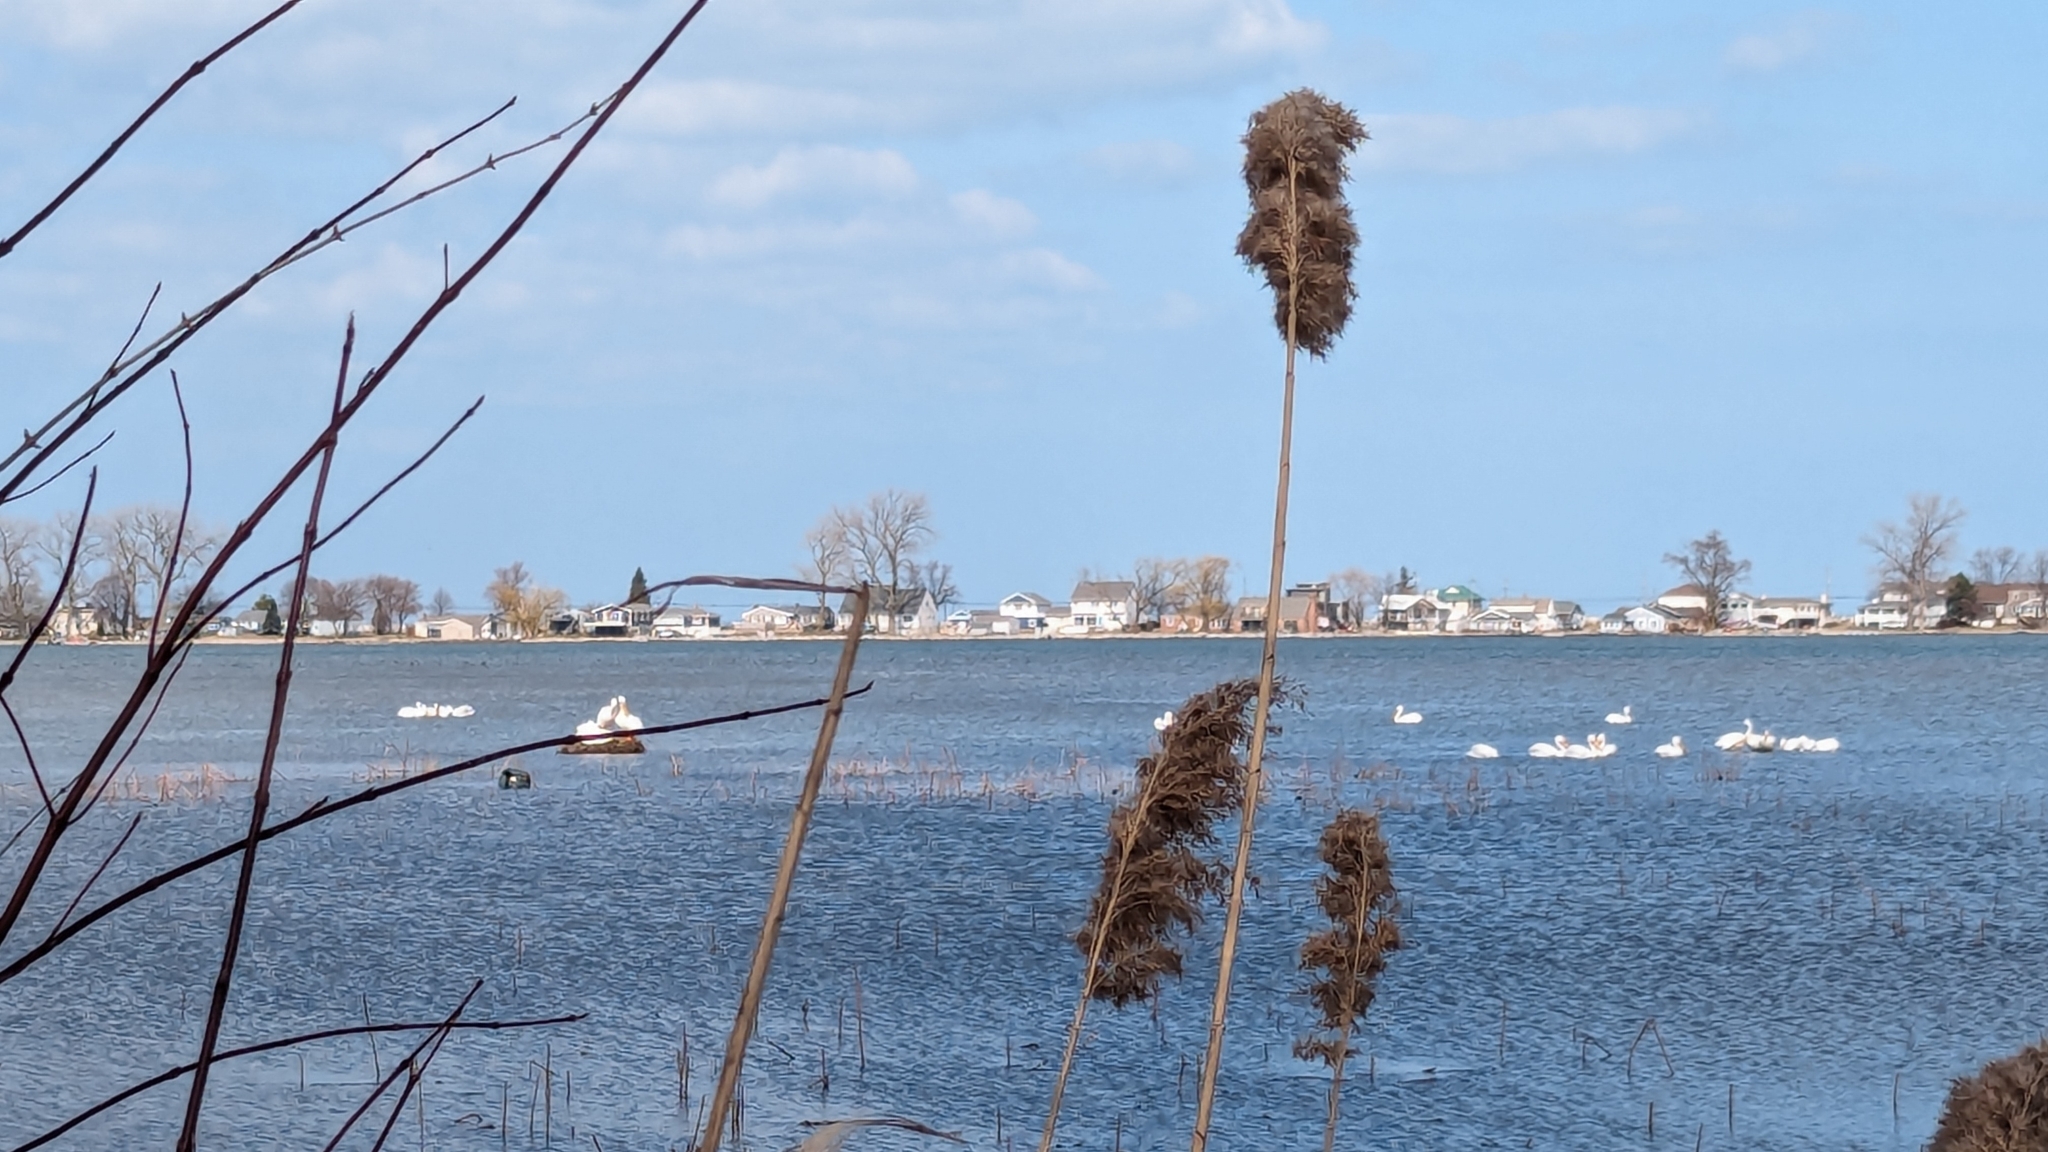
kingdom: Animalia
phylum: Chordata
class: Aves
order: Pelecaniformes
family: Pelecanidae
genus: Pelecanus
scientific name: Pelecanus erythrorhynchos
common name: American white pelican
